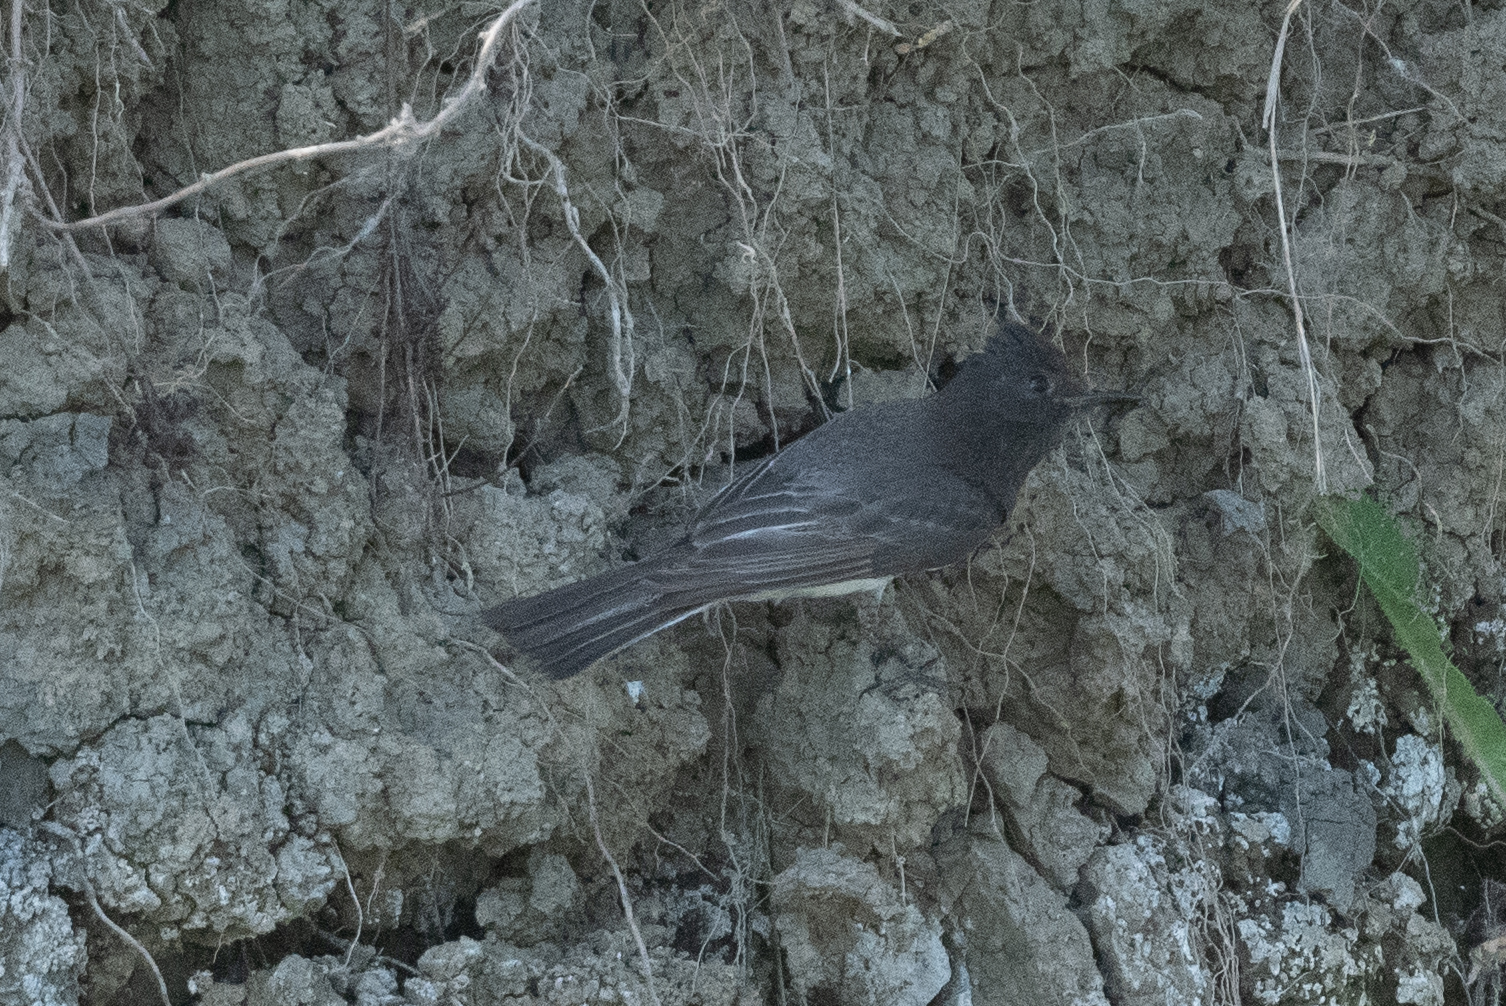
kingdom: Animalia
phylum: Chordata
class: Aves
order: Passeriformes
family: Tyrannidae
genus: Sayornis
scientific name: Sayornis nigricans
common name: Black phoebe
